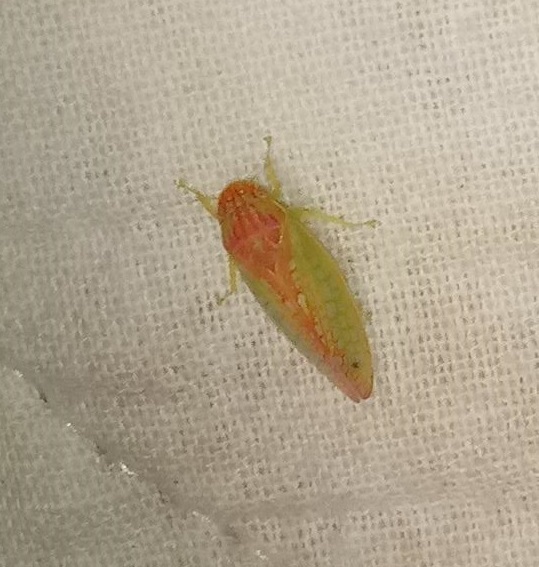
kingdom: Animalia
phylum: Arthropoda
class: Insecta
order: Hemiptera
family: Cicadellidae
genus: Gyponana
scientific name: Gyponana octolineata
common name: Eight-lined leafhopper
